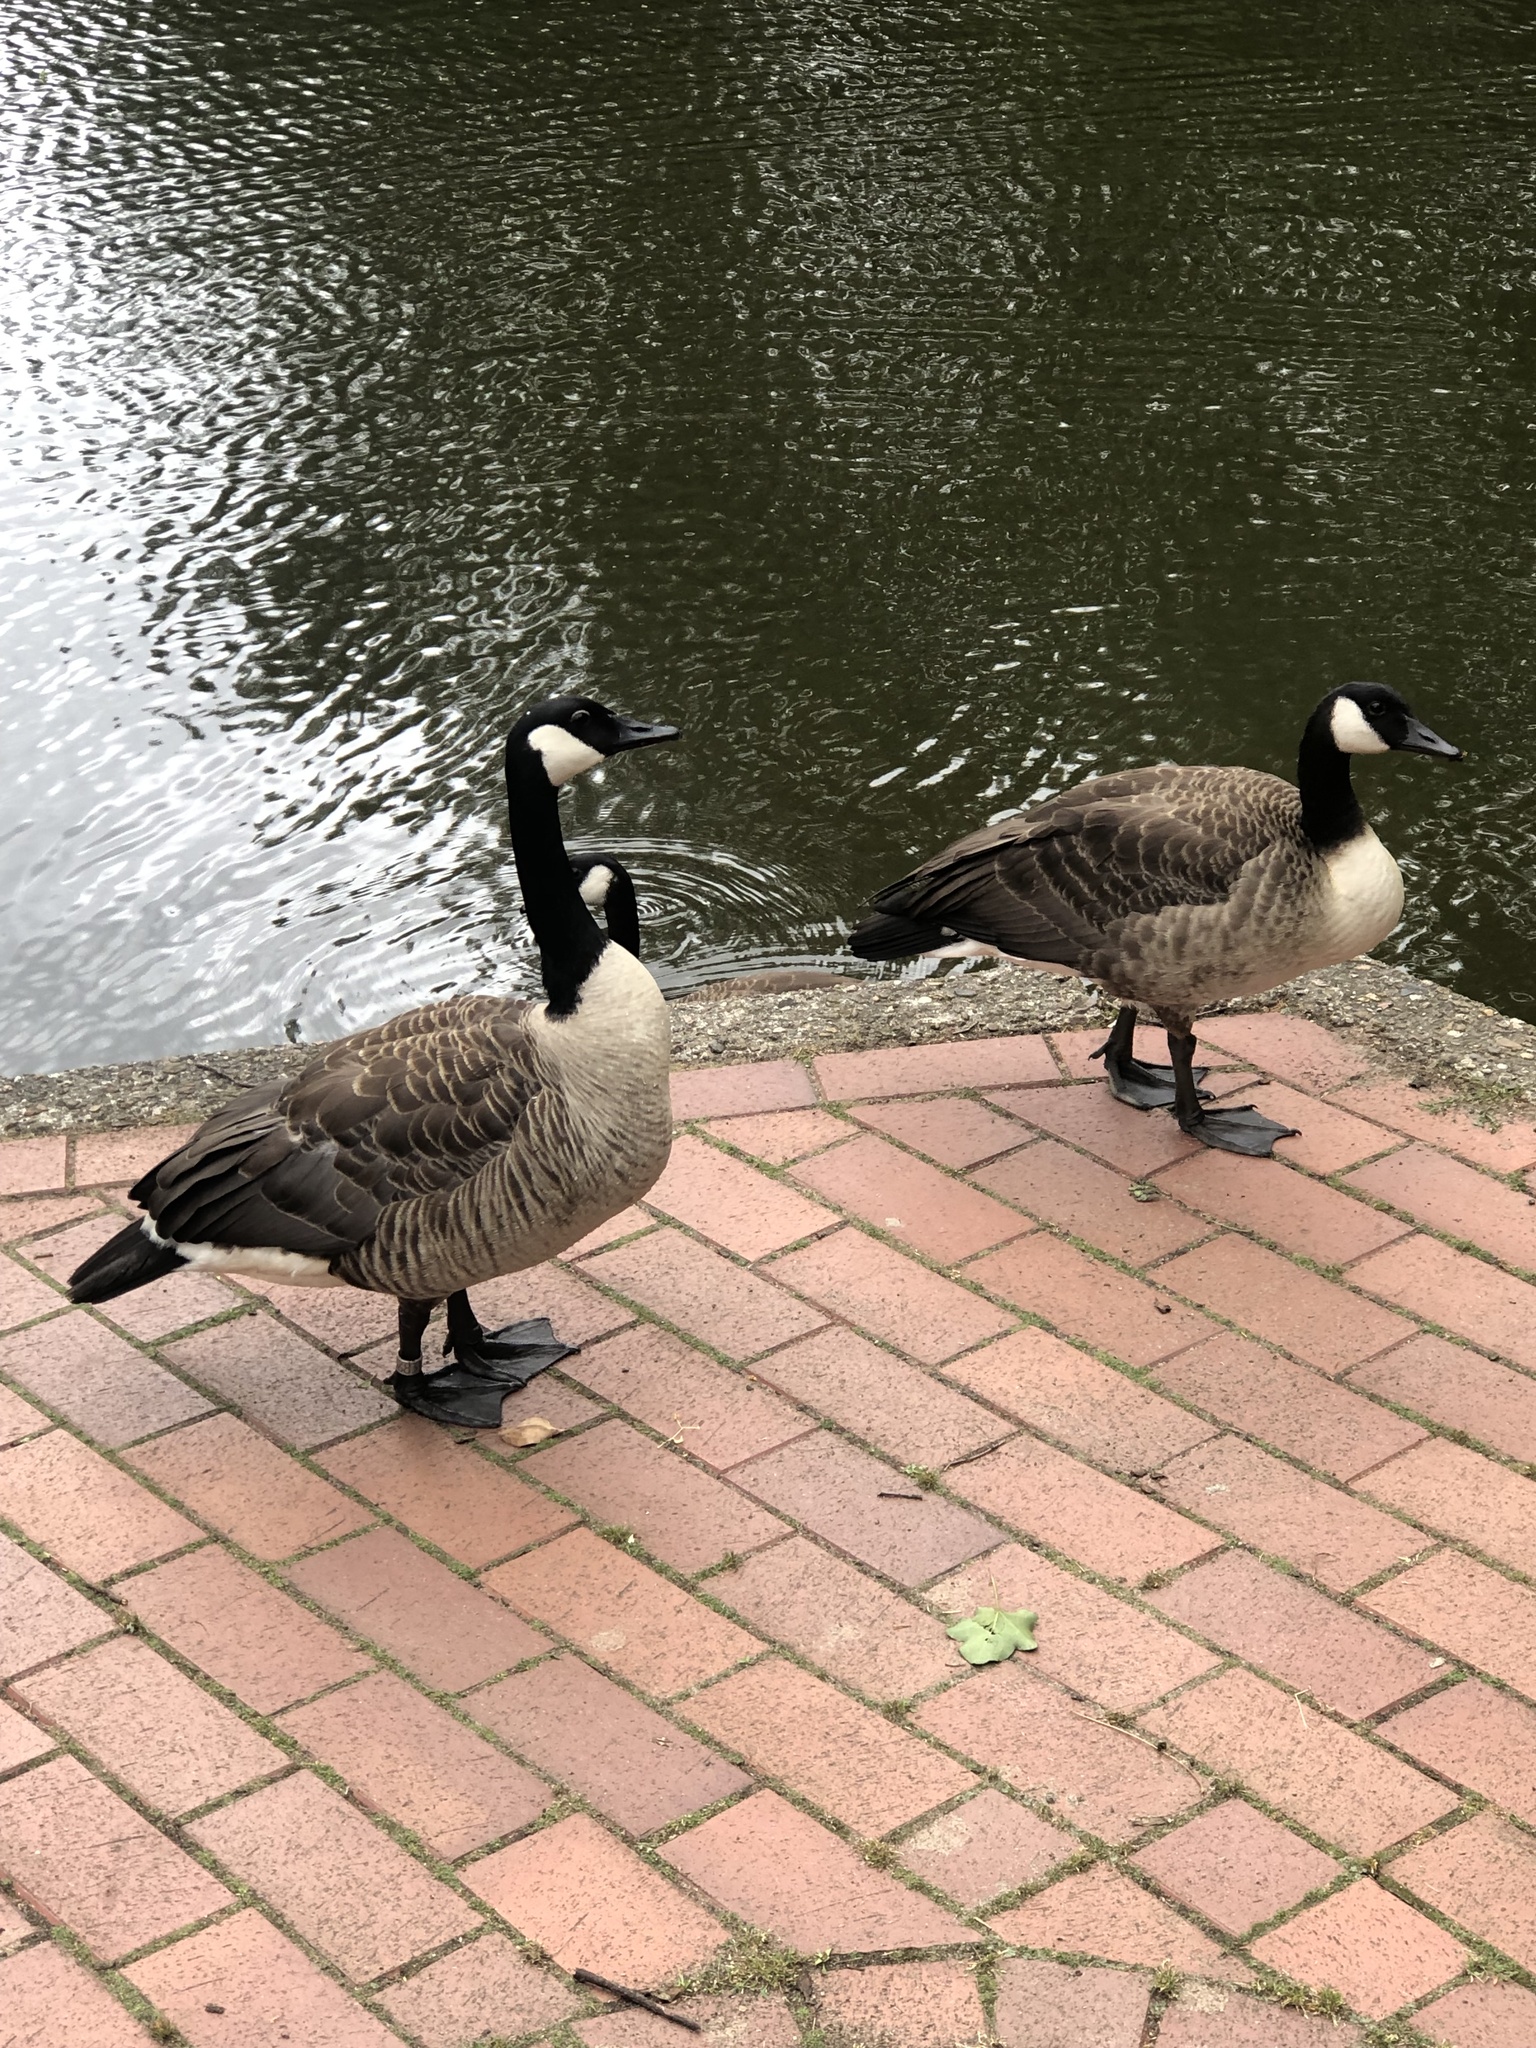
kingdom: Animalia
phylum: Chordata
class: Aves
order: Anseriformes
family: Anatidae
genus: Branta
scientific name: Branta canadensis
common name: Canada goose
